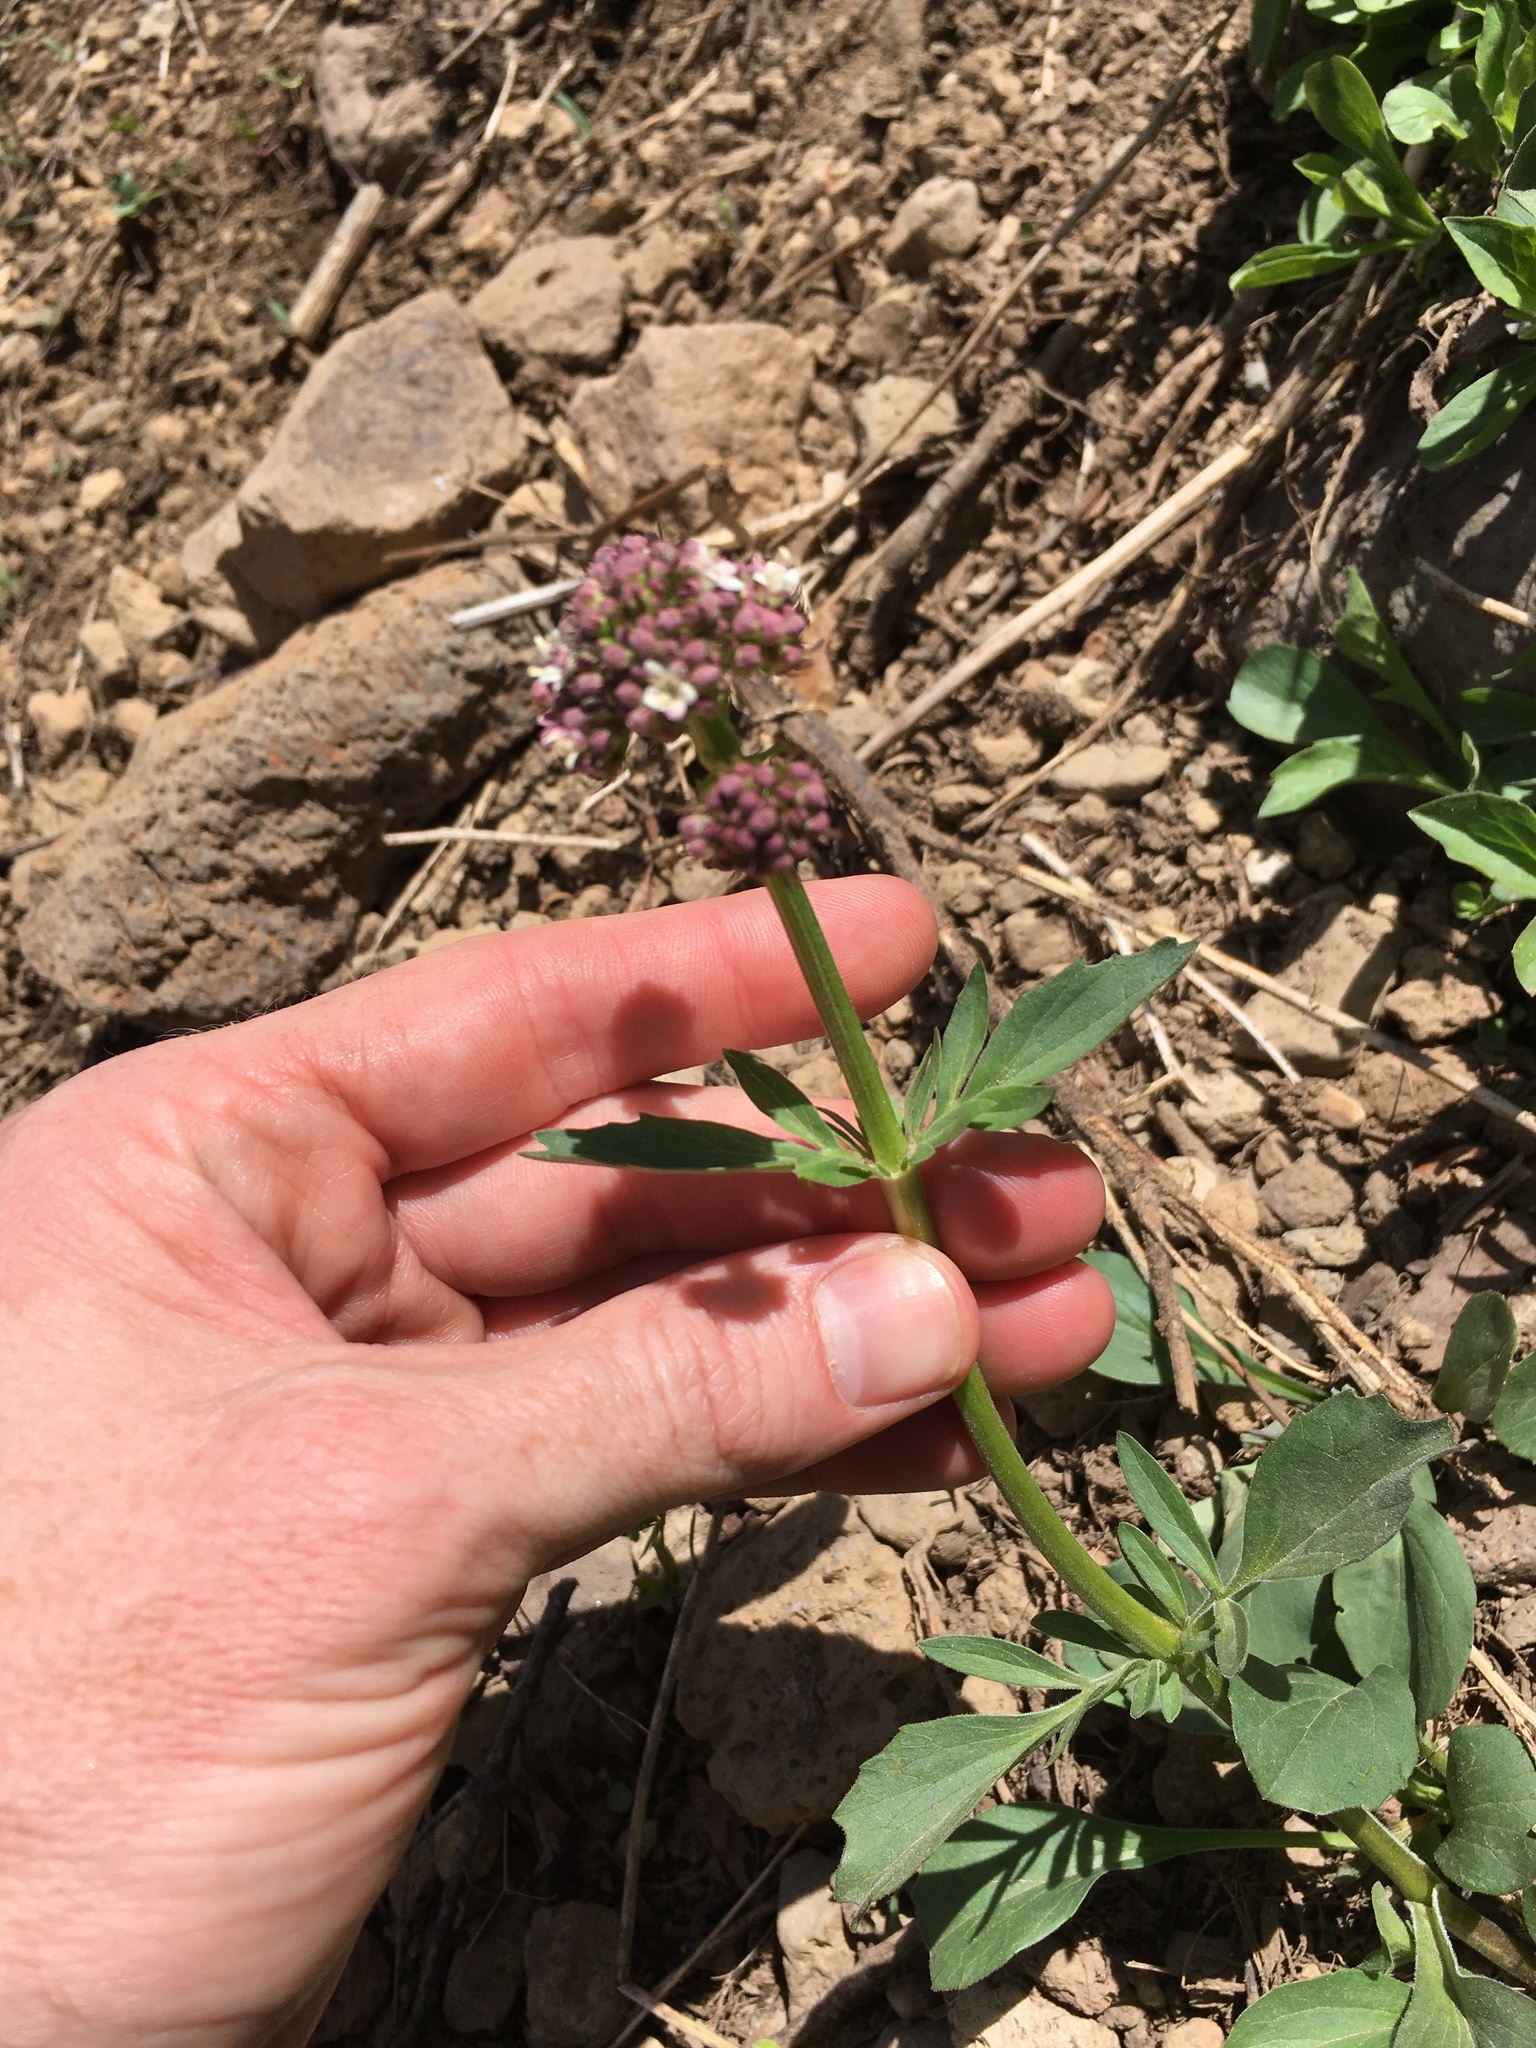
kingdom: Plantae
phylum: Tracheophyta
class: Magnoliopsida
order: Dipsacales
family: Caprifoliaceae
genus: Valeriana
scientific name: Valeriana californica
